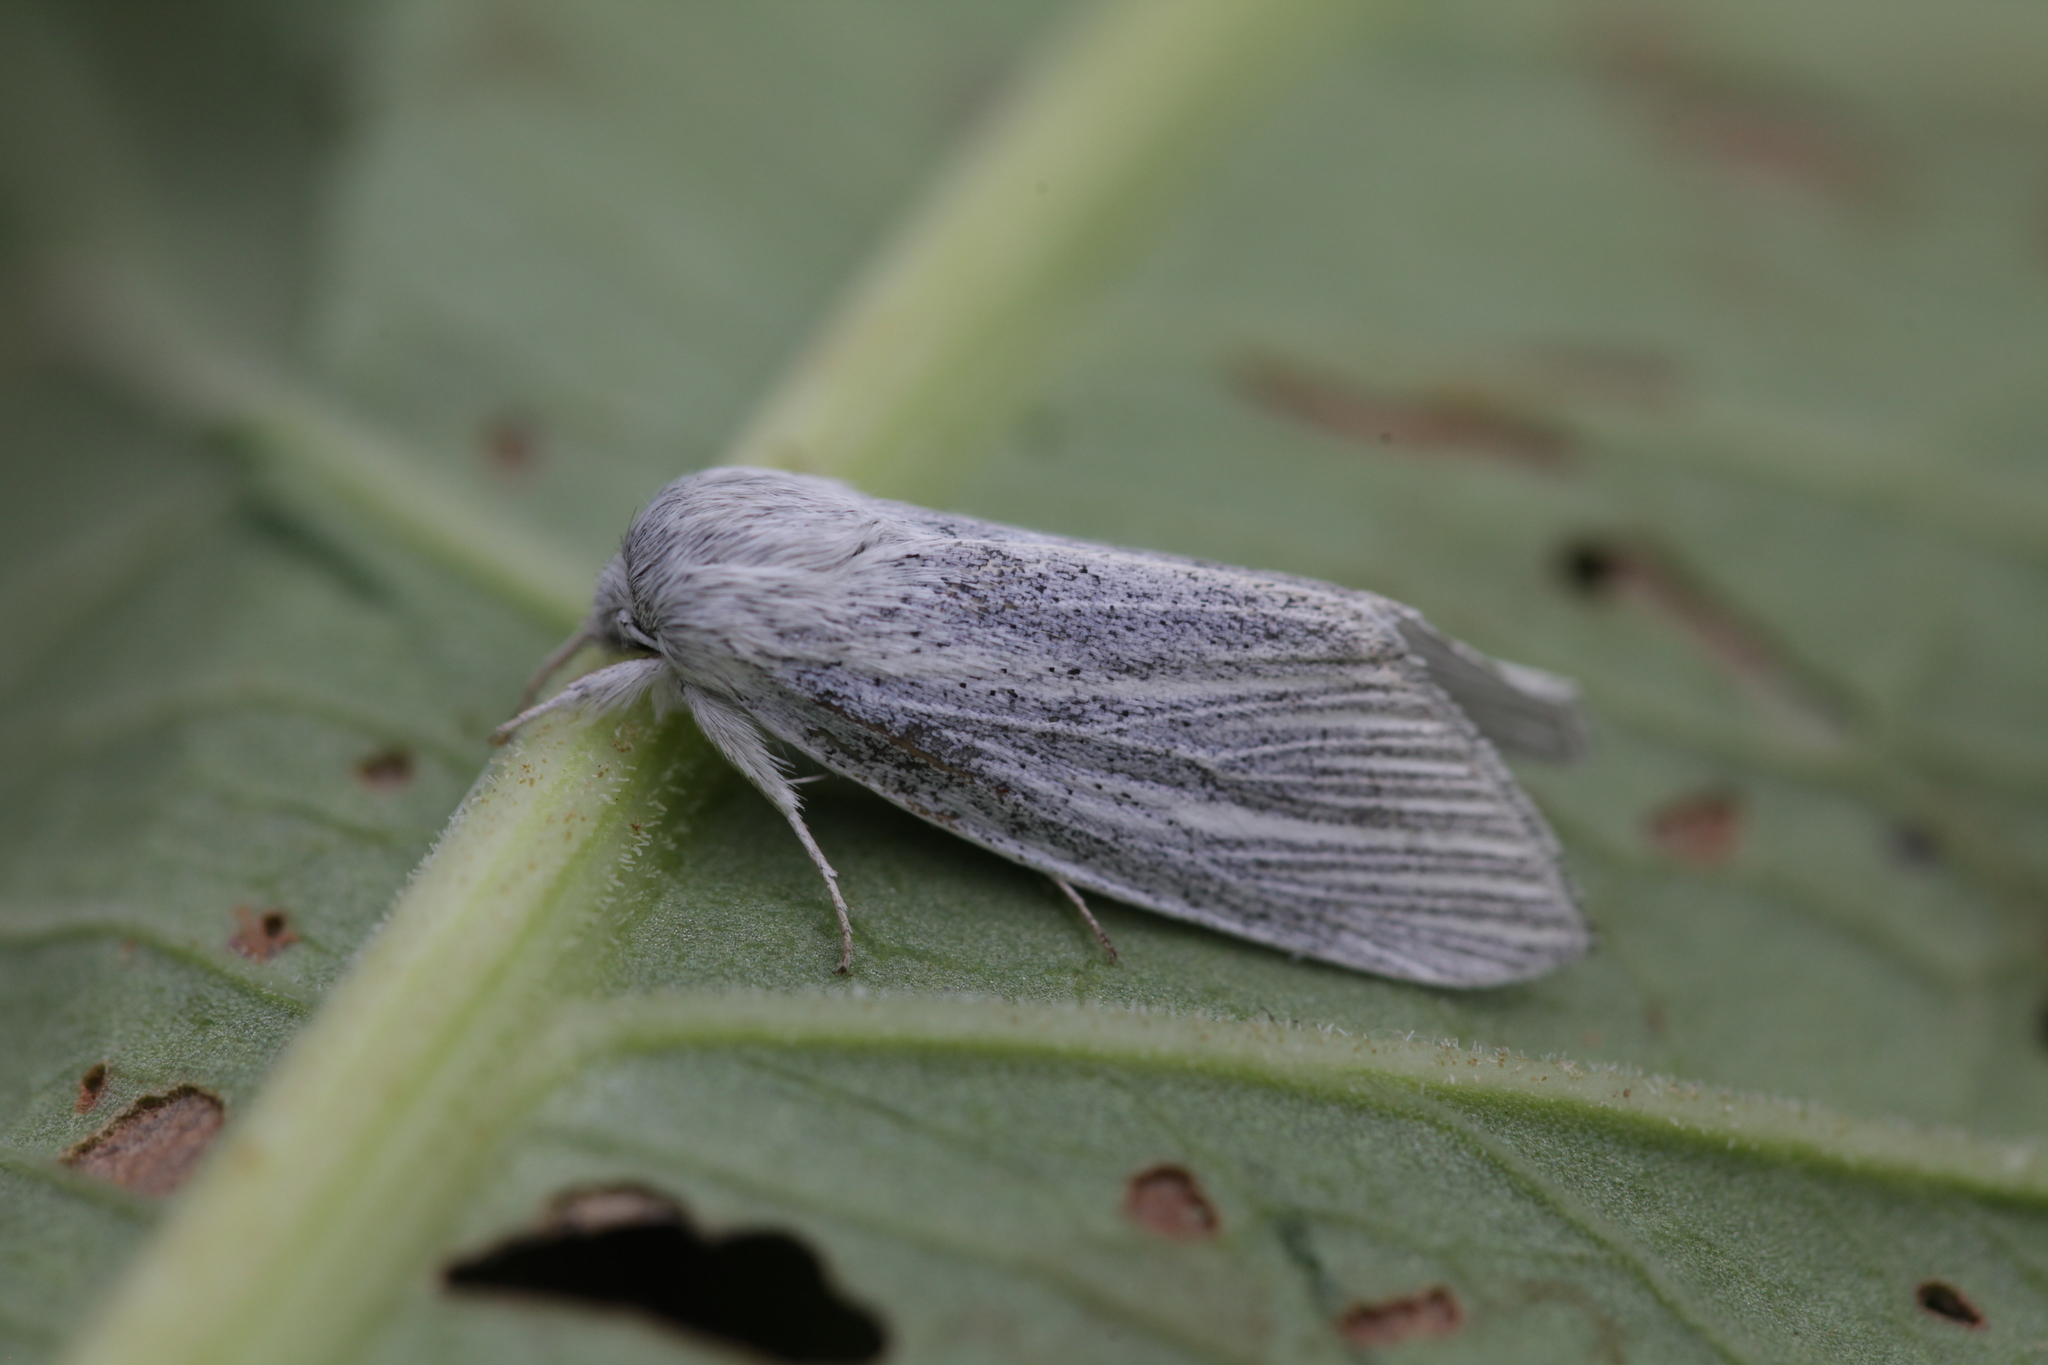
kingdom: Animalia
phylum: Arthropoda
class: Insecta
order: Lepidoptera
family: Noctuidae
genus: Acronicta
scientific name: Acronicta nervosa
